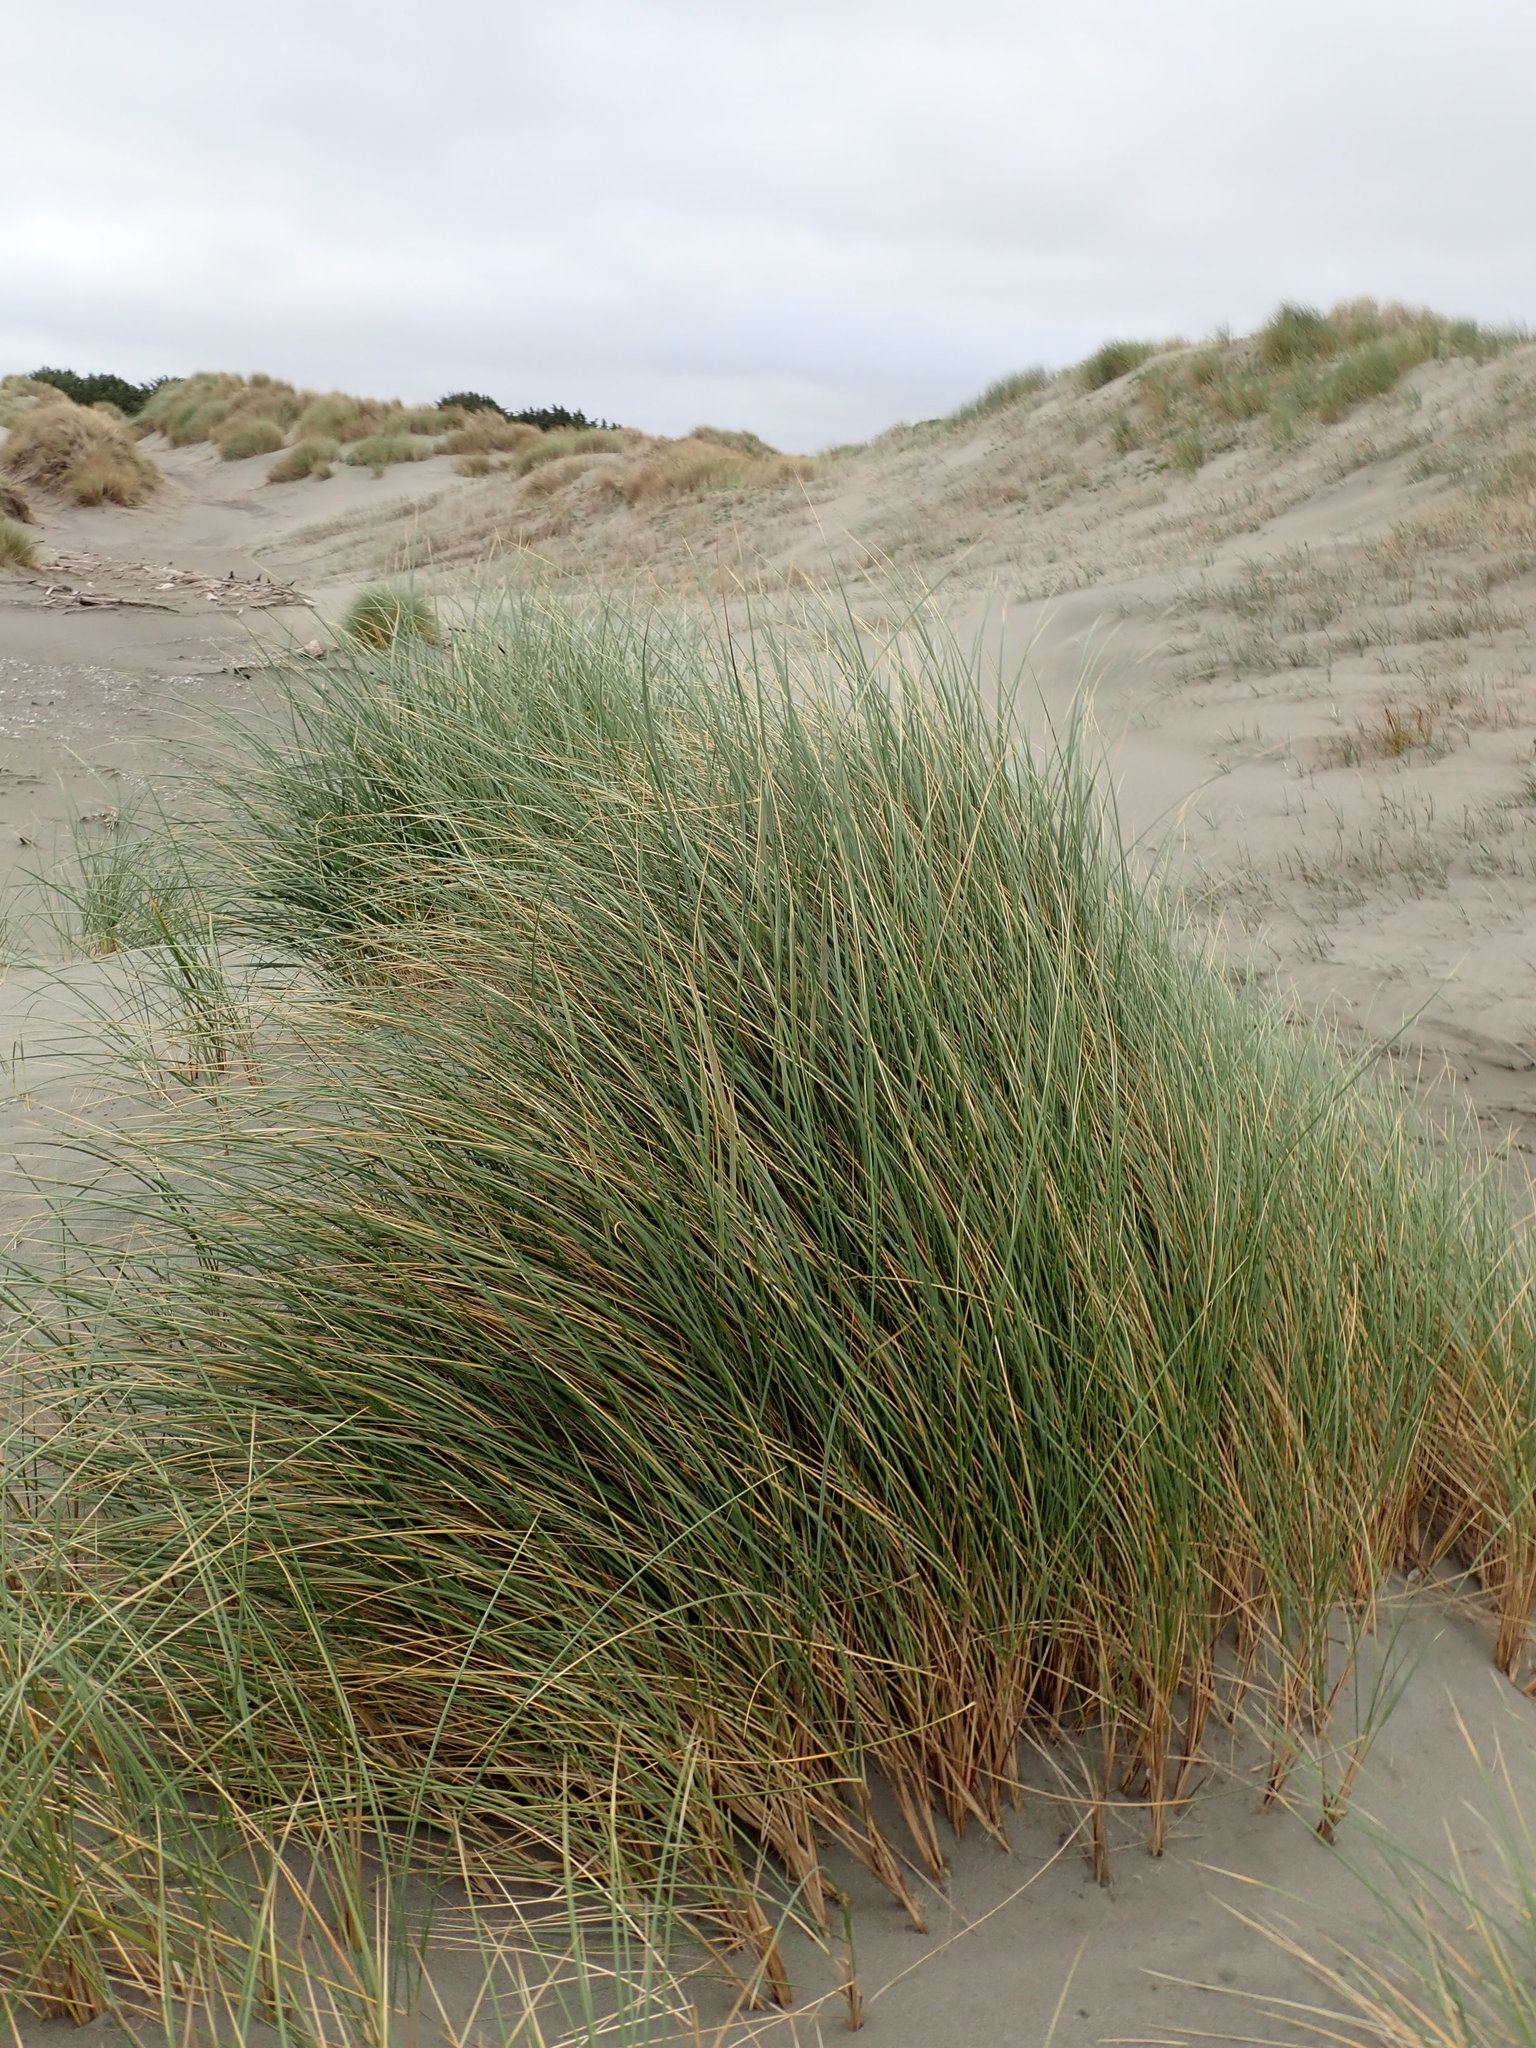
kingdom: Plantae
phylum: Tracheophyta
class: Liliopsida
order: Poales
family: Poaceae
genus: Calamagrostis
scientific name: Calamagrostis arenaria
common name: European beachgrass
